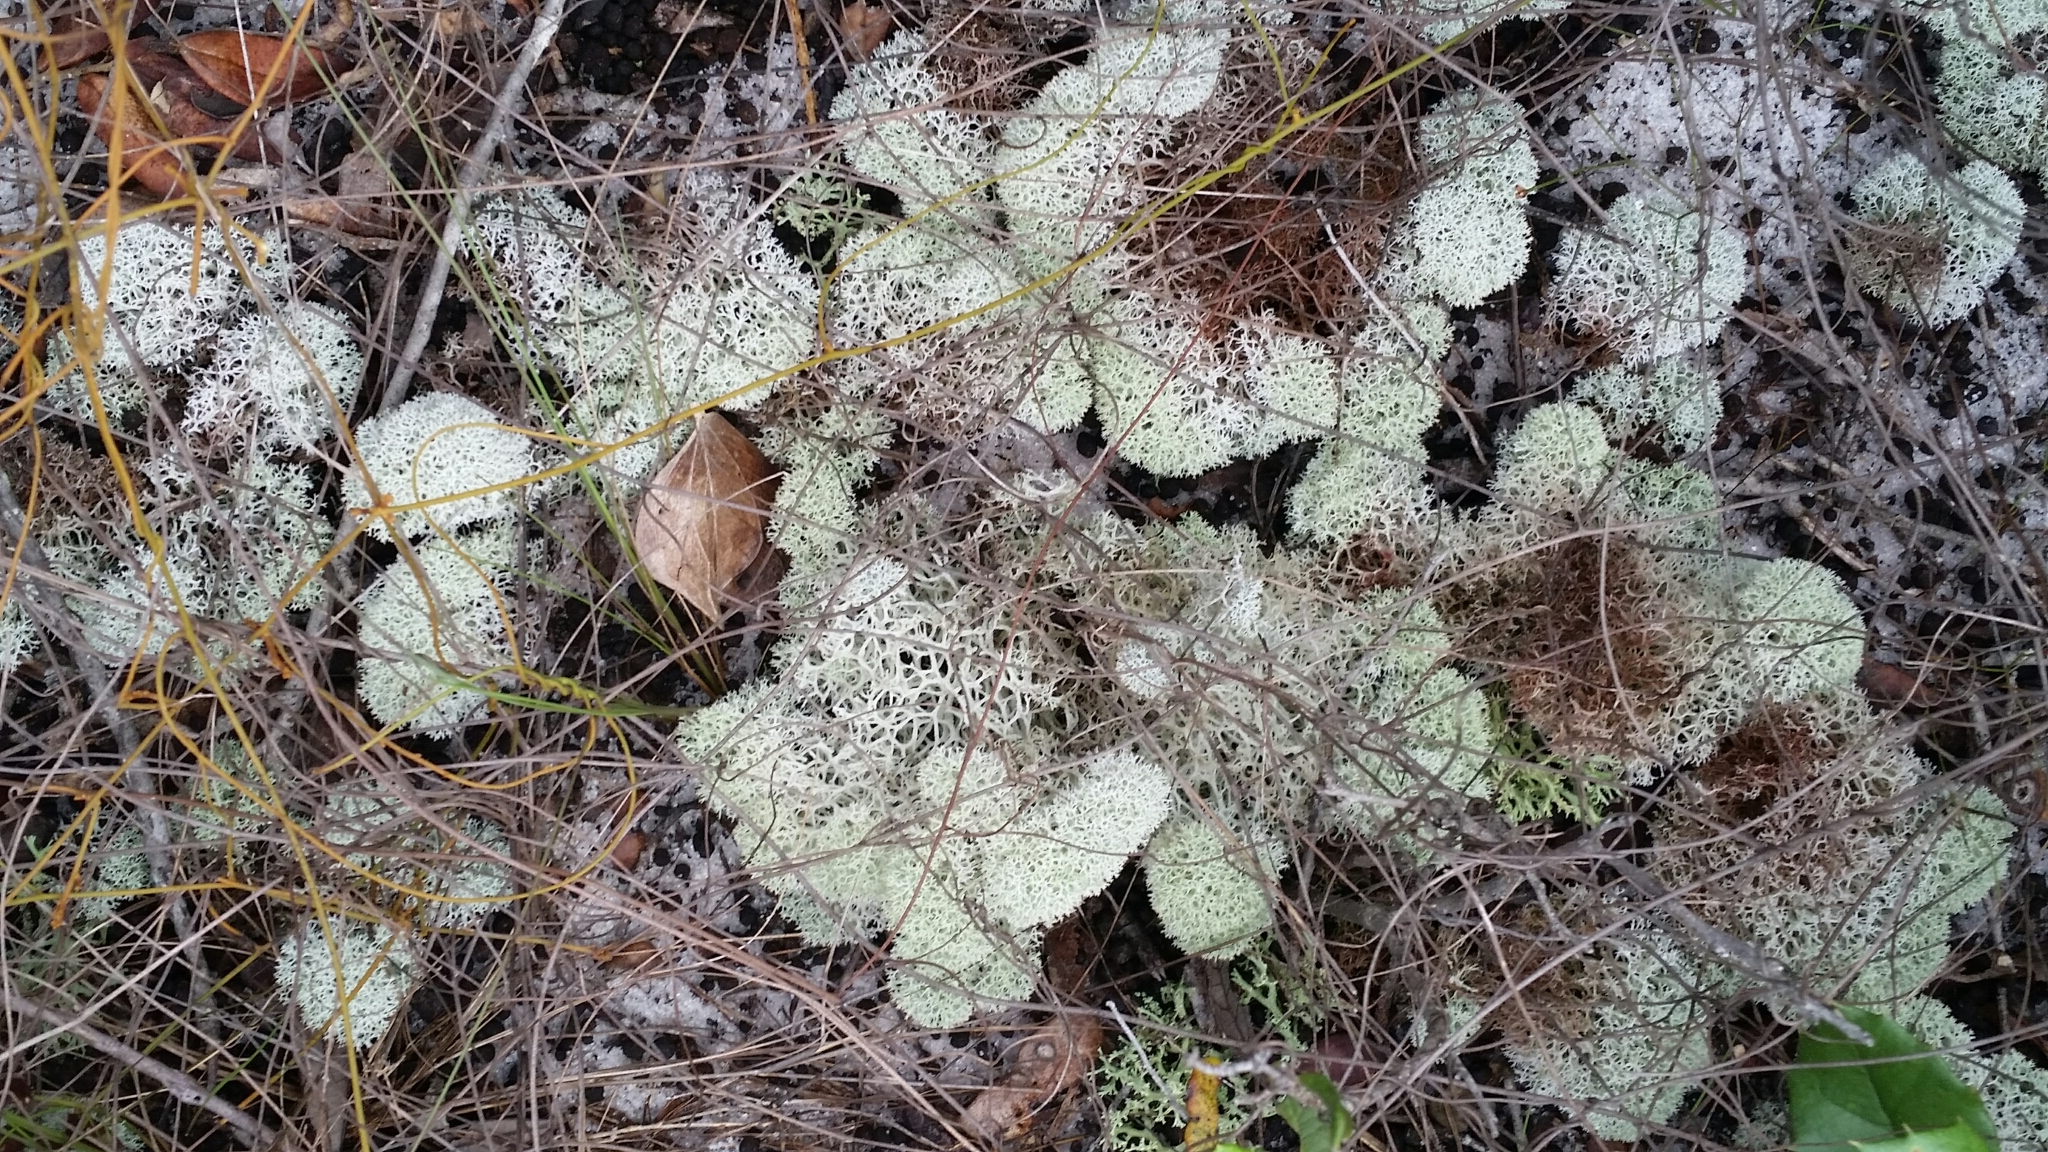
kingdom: Fungi
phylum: Ascomycota
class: Lecanoromycetes
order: Lecanorales
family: Cladoniaceae
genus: Cladonia
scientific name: Cladonia evansii
